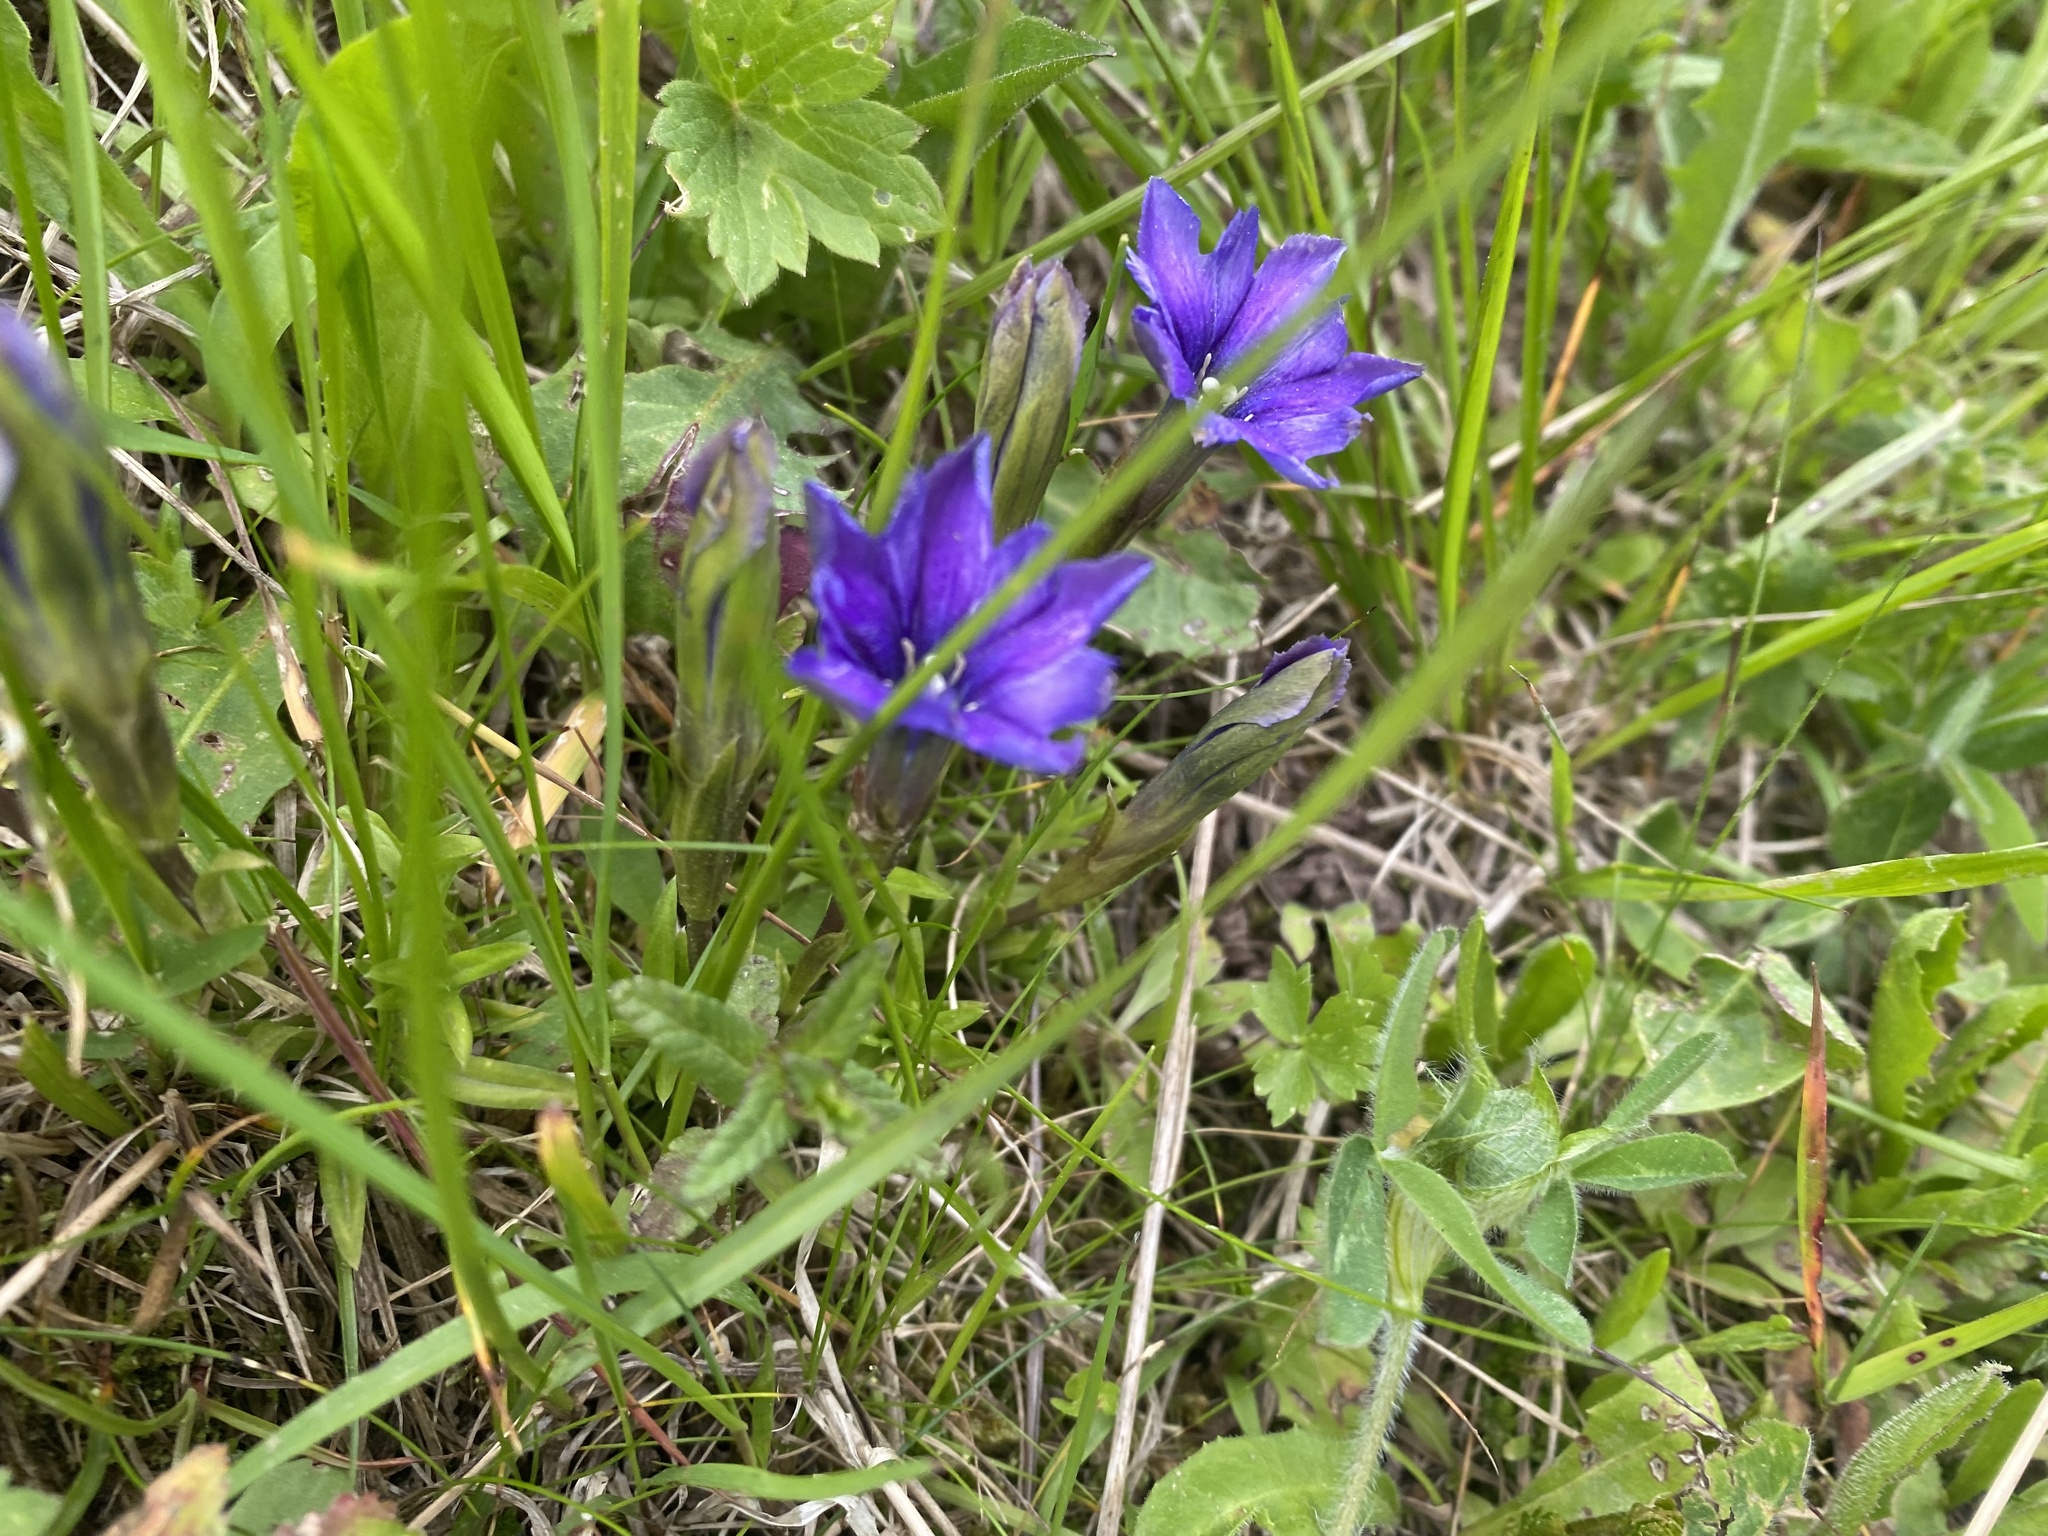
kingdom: Plantae
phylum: Tracheophyta
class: Magnoliopsida
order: Gentianales
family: Gentianaceae
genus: Gentiana
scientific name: Gentiana dshimilensis
